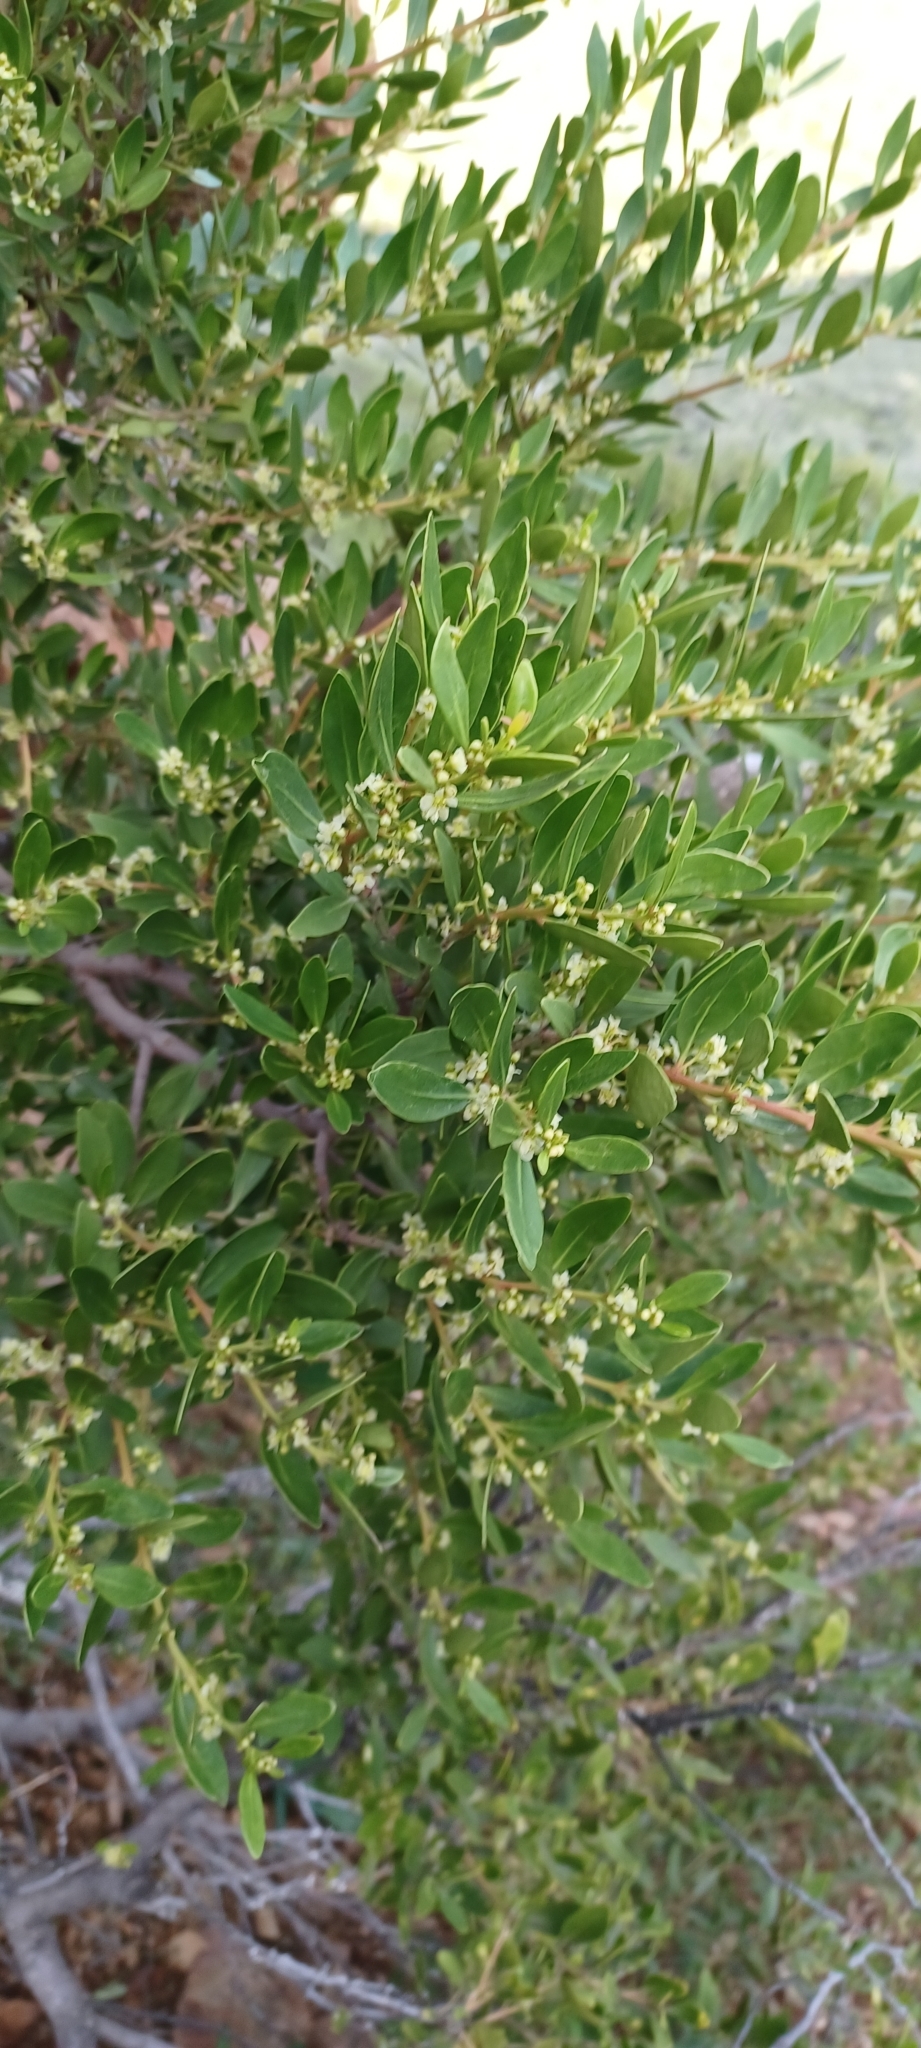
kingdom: Plantae
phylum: Tracheophyta
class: Magnoliopsida
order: Celastrales
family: Celastraceae
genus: Gymnosporia
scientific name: Gymnosporia laurina
